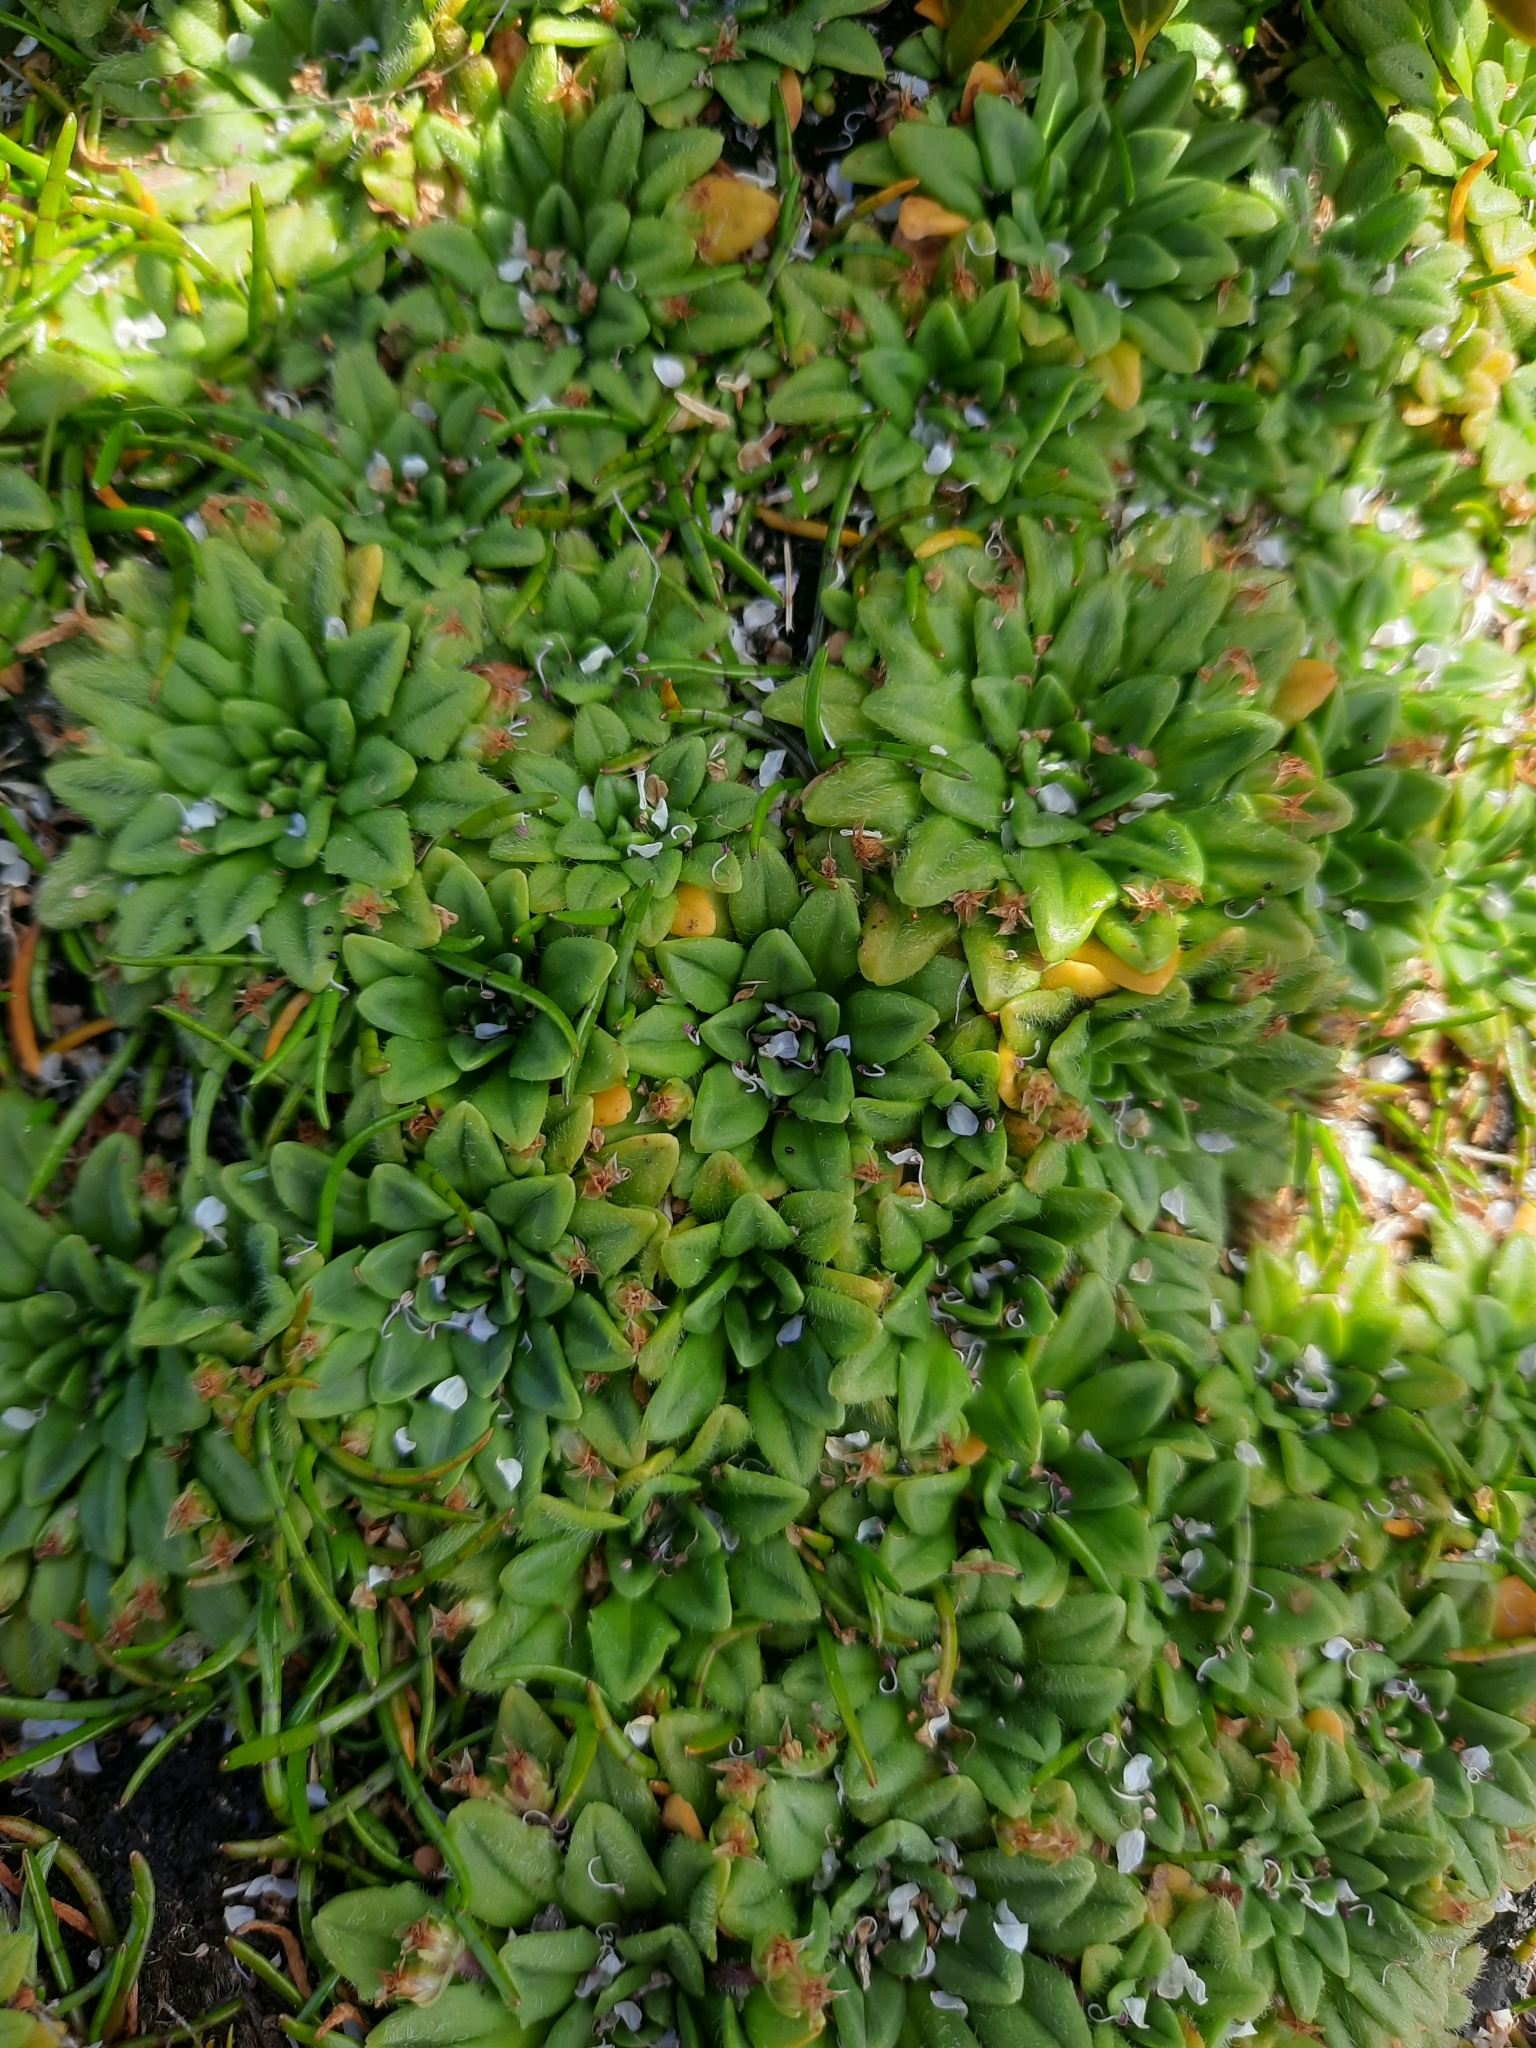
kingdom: Plantae
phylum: Tracheophyta
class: Magnoliopsida
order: Lamiales
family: Plantaginaceae
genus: Plantago
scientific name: Plantago brownii
